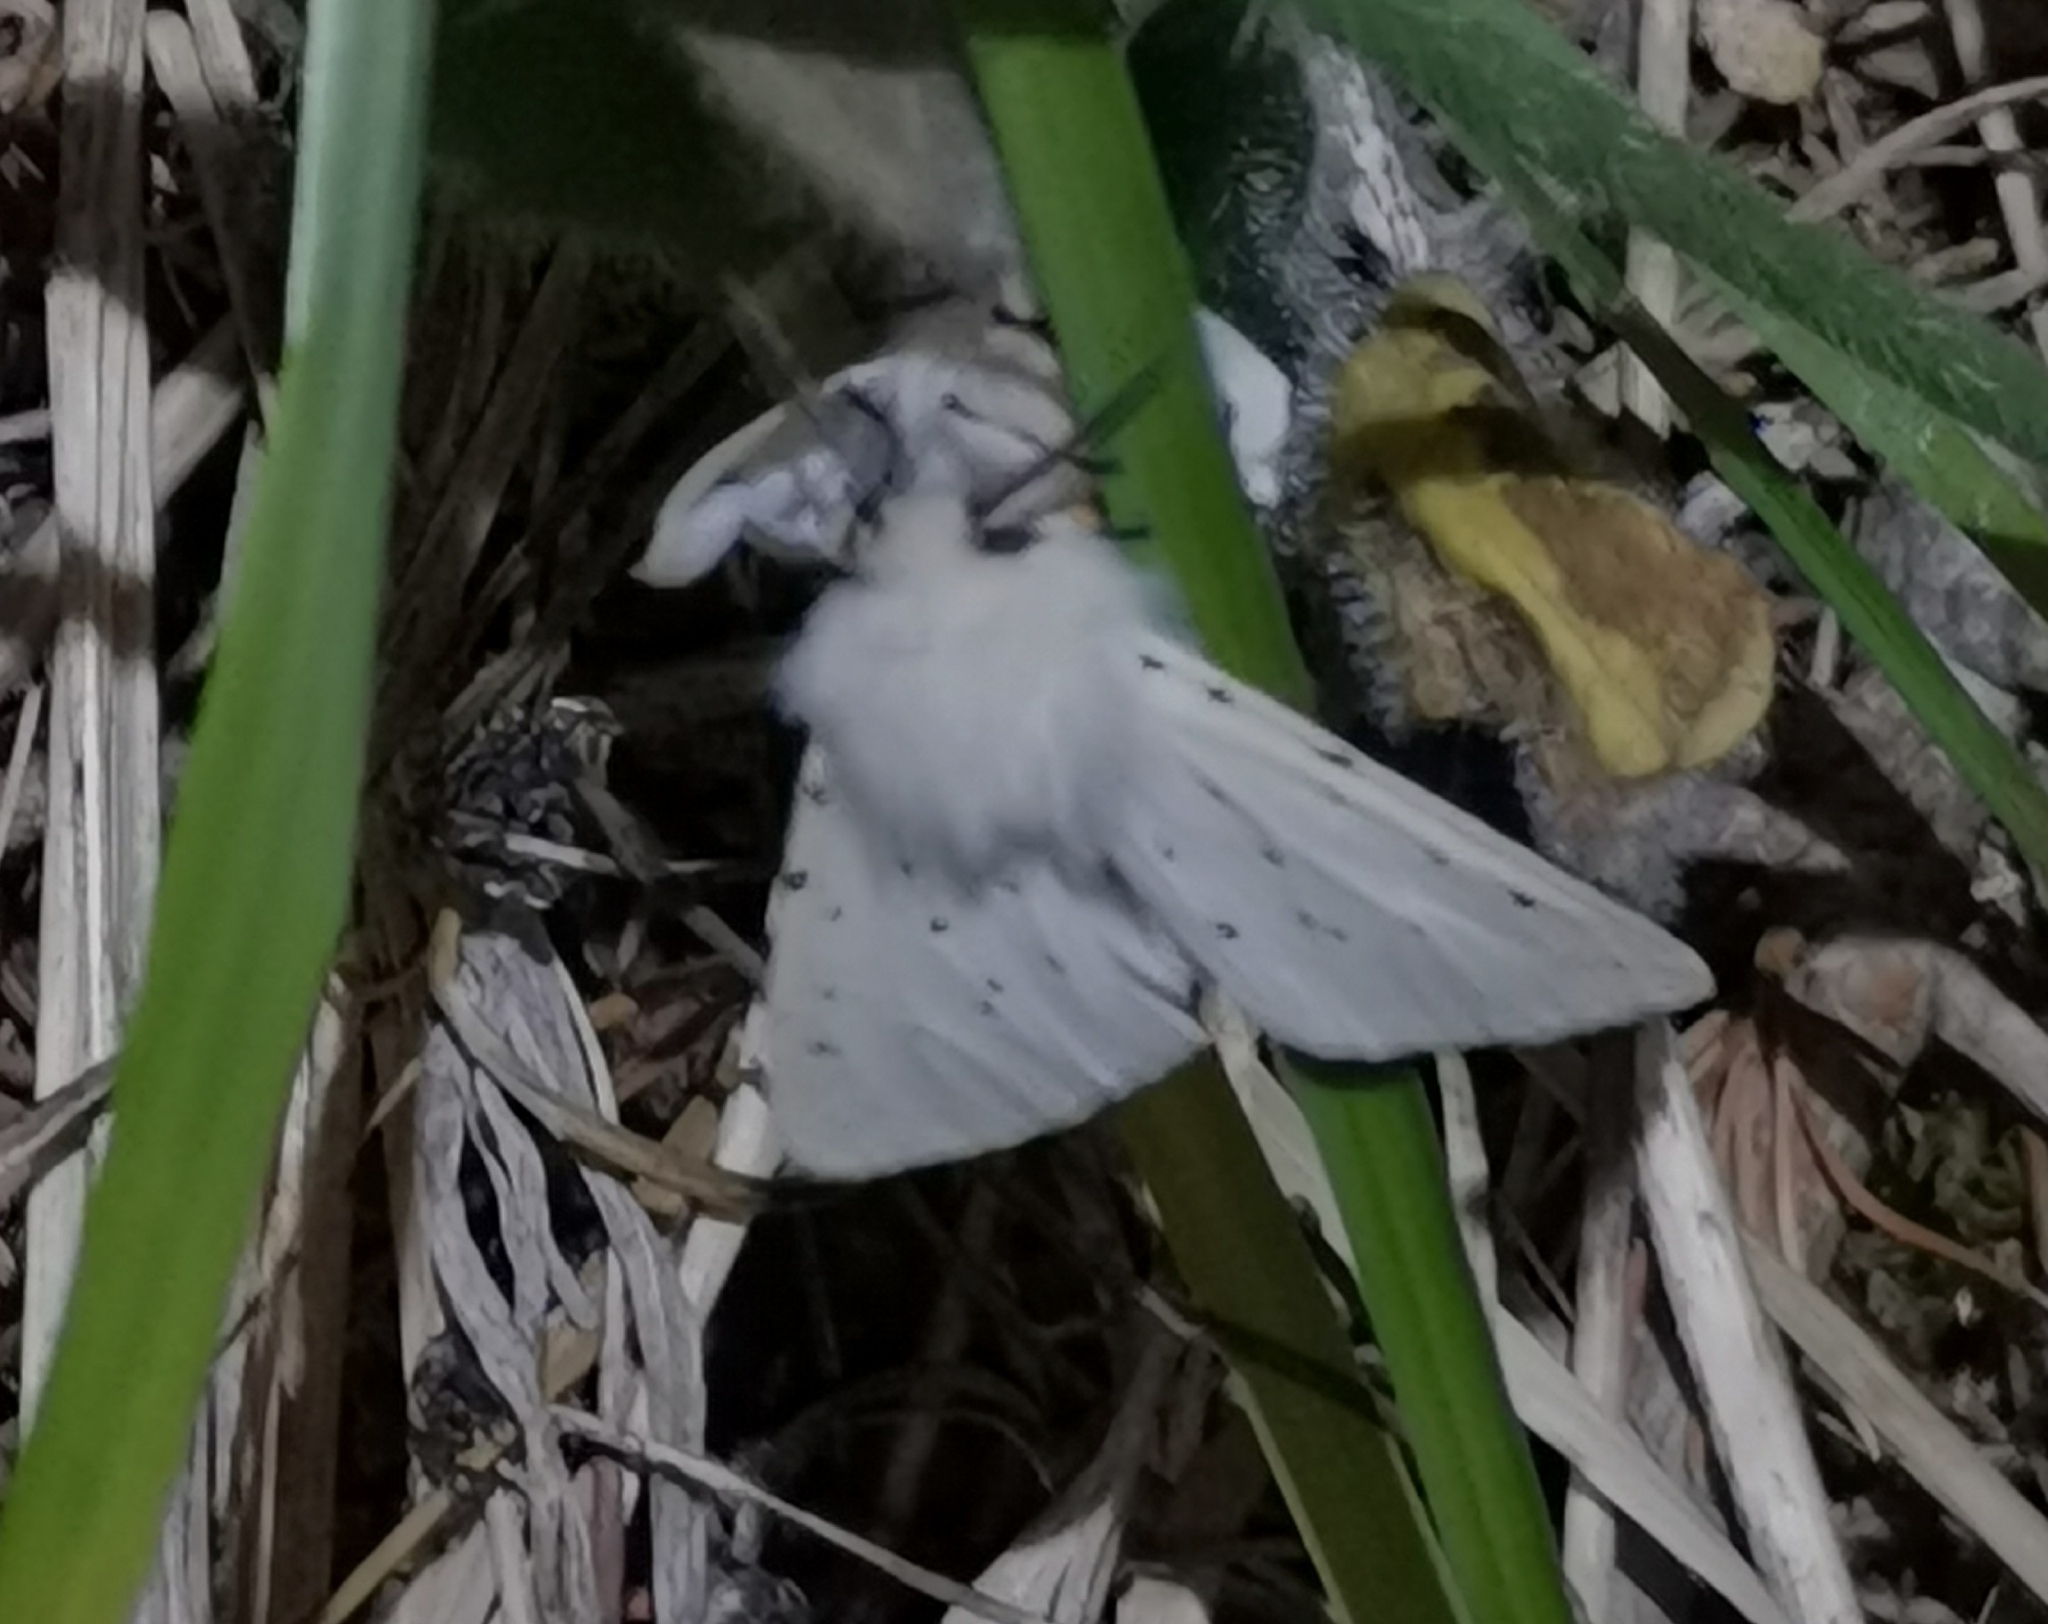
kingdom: Animalia
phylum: Arthropoda
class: Insecta
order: Lepidoptera
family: Erebidae
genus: Spilosoma
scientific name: Spilosoma lubricipeda
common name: White ermine
